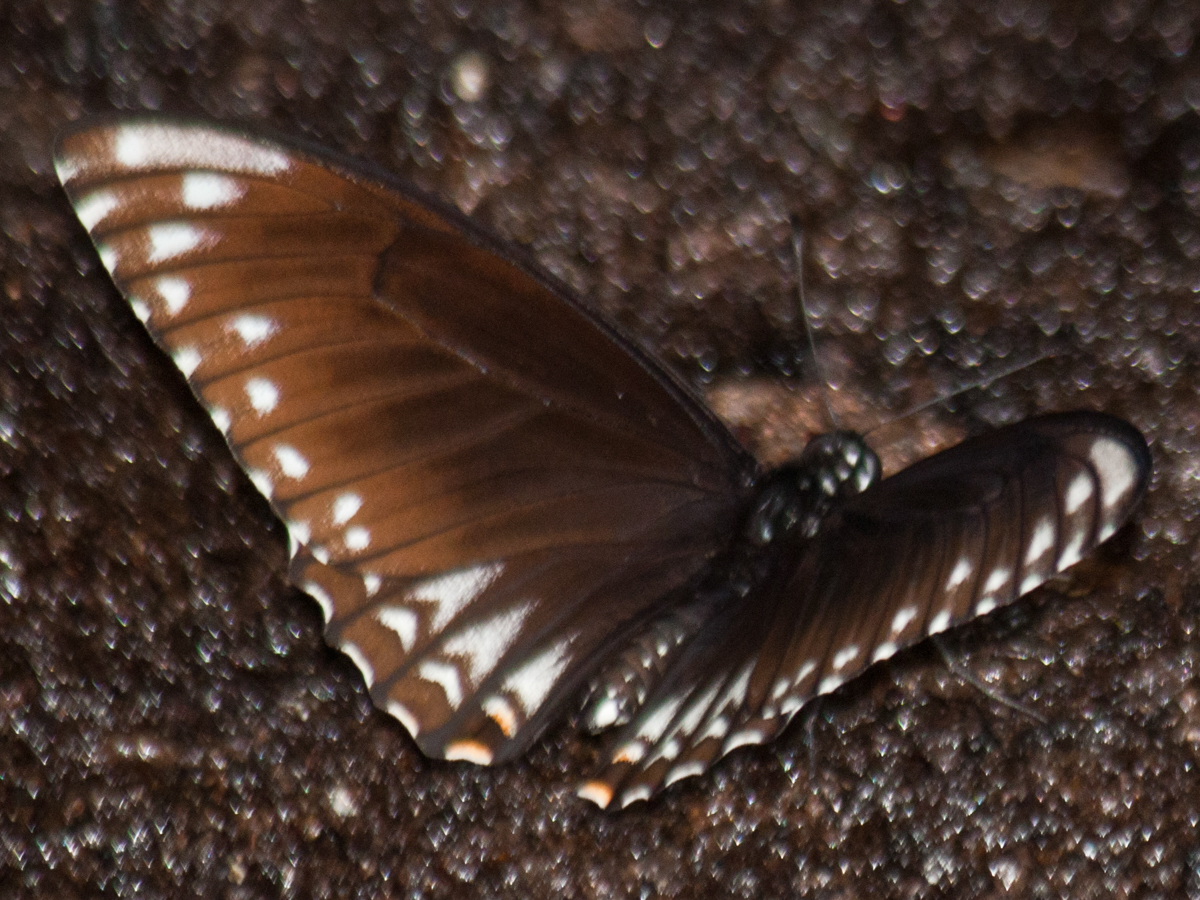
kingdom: Animalia
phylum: Arthropoda
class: Insecta
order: Lepidoptera
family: Papilionidae
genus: Chilasa
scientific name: Chilasa clytia
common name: Common mime
